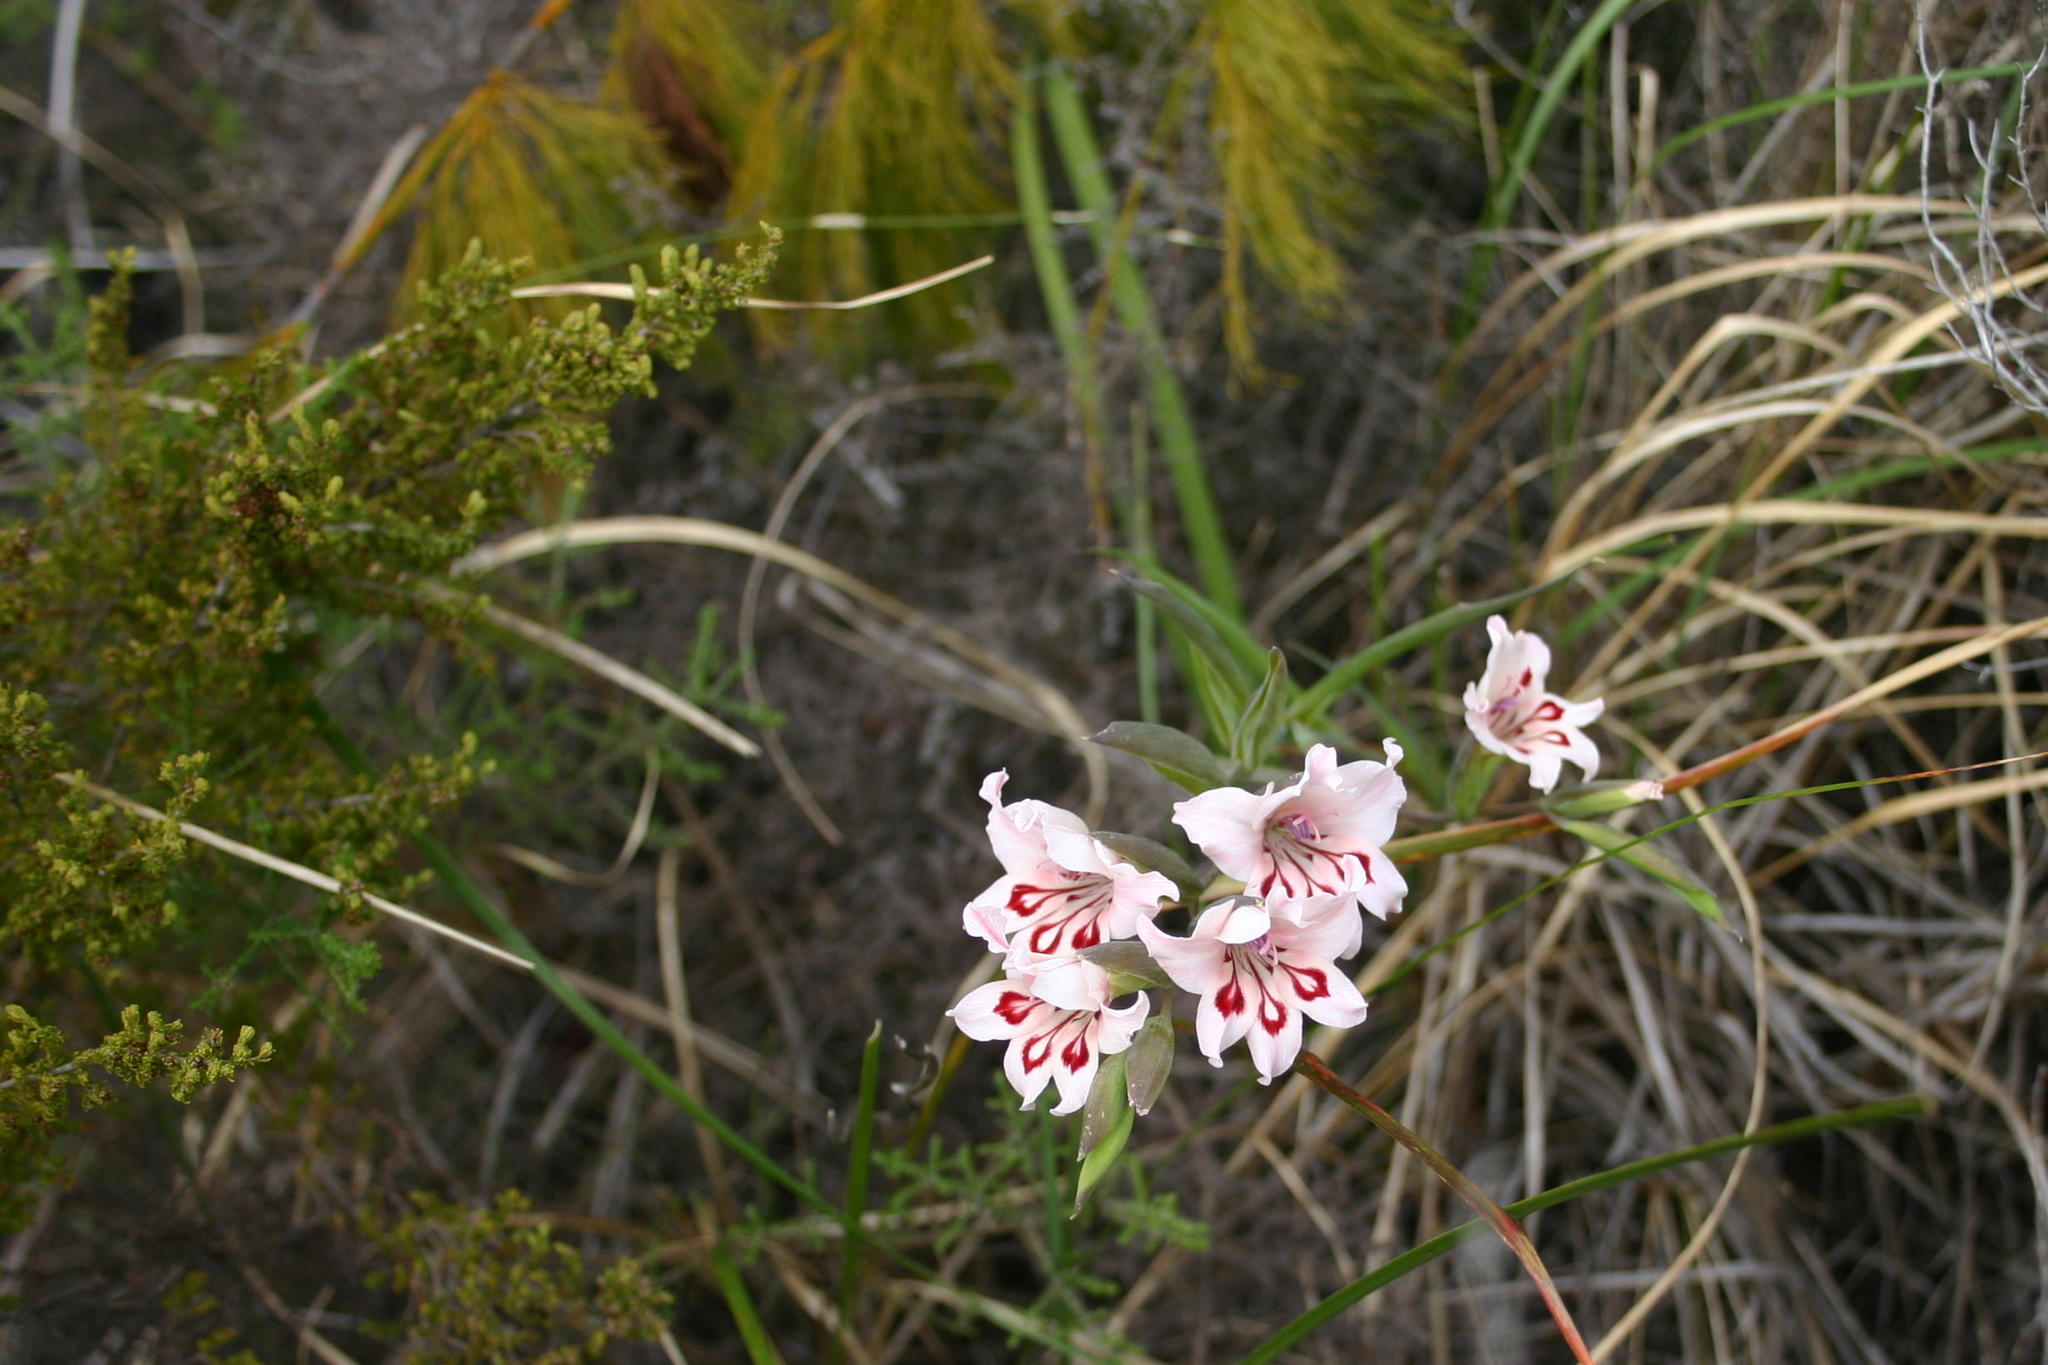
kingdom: Plantae
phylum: Tracheophyta
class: Liliopsida
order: Asparagales
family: Iridaceae
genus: Gladiolus
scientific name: Gladiolus carneus
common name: Painted-lady
